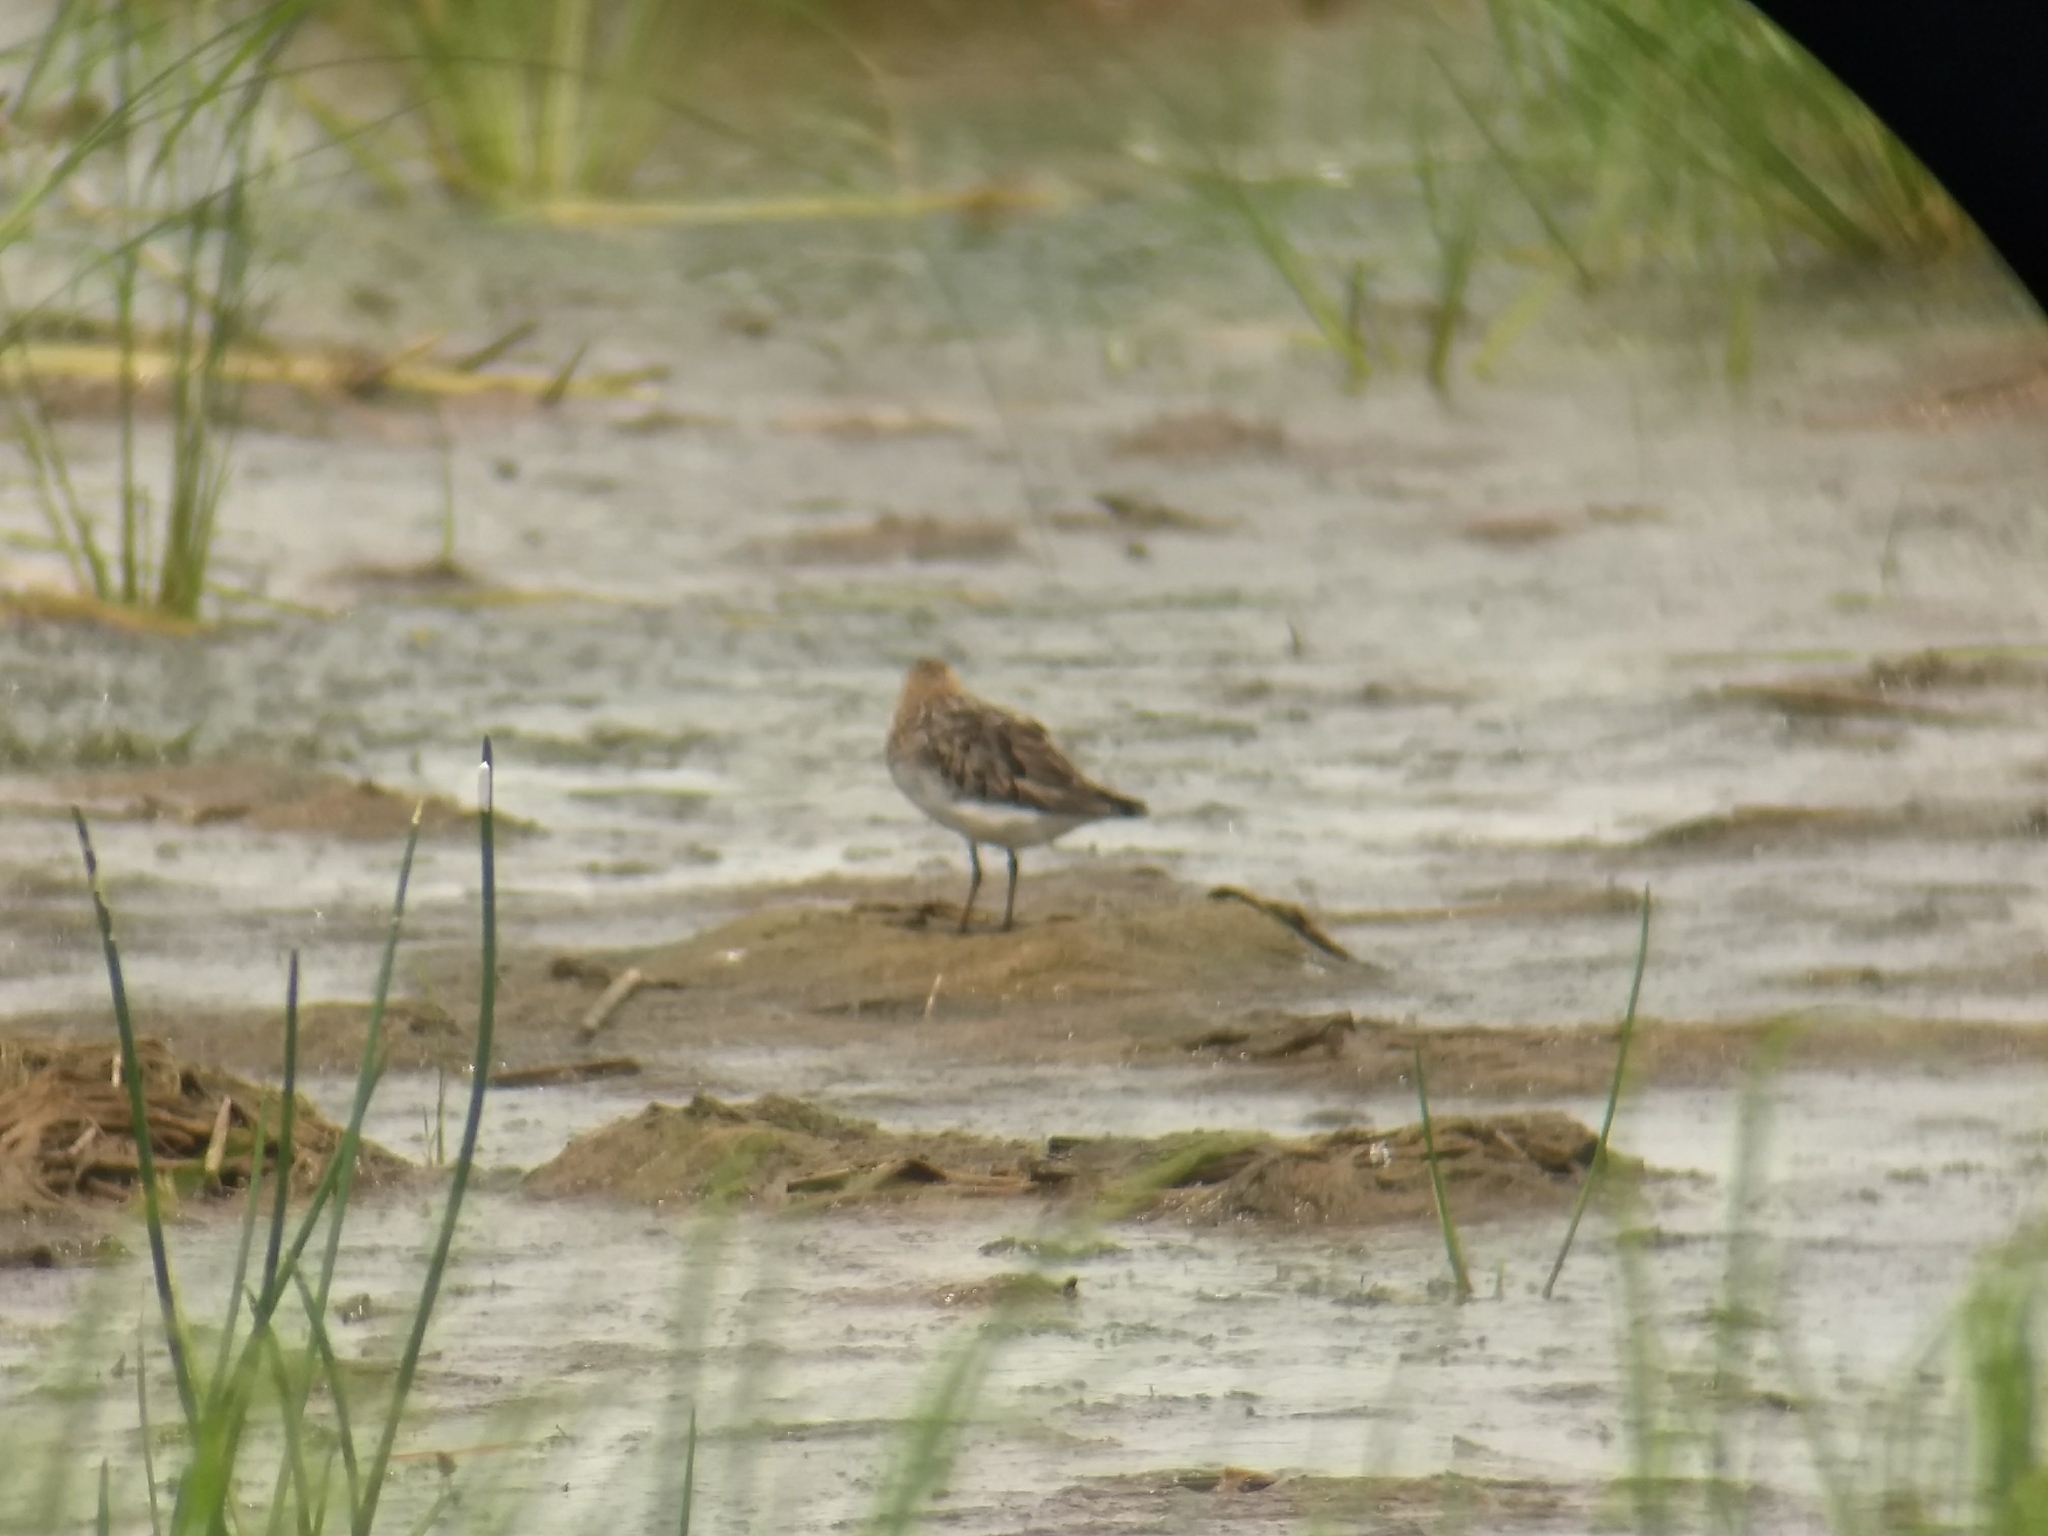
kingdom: Animalia
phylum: Chordata
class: Aves
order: Charadriiformes
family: Scolopacidae
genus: Calidris
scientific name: Calidris subminuta
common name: Long-toed stint
